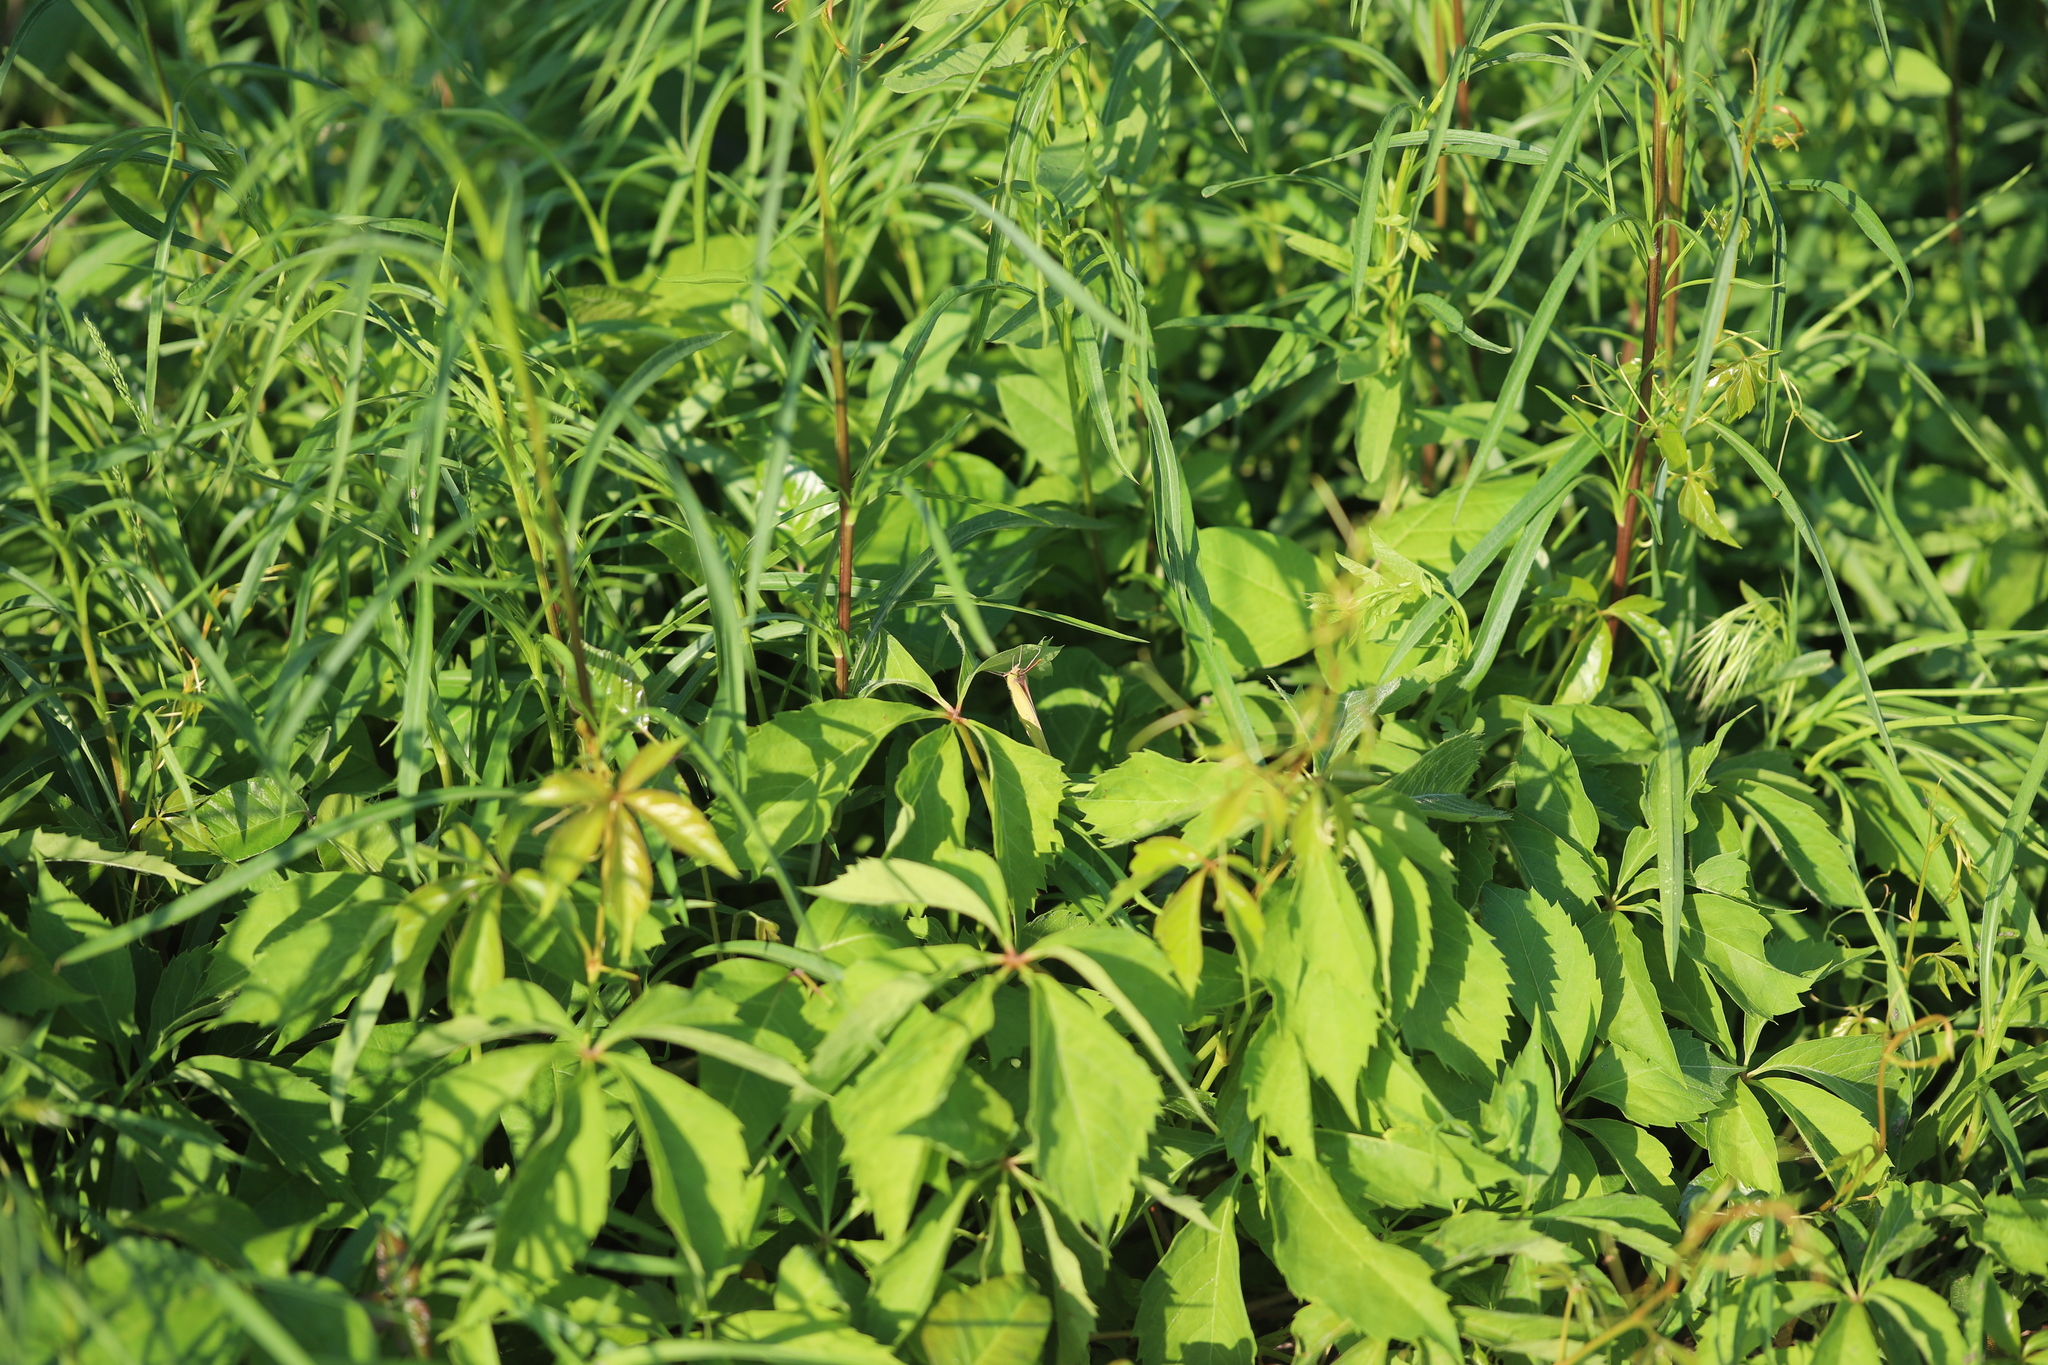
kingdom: Plantae
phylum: Tracheophyta
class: Magnoliopsida
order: Vitales
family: Vitaceae
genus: Parthenocissus
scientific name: Parthenocissus quinquefolia
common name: Virginia-creeper
